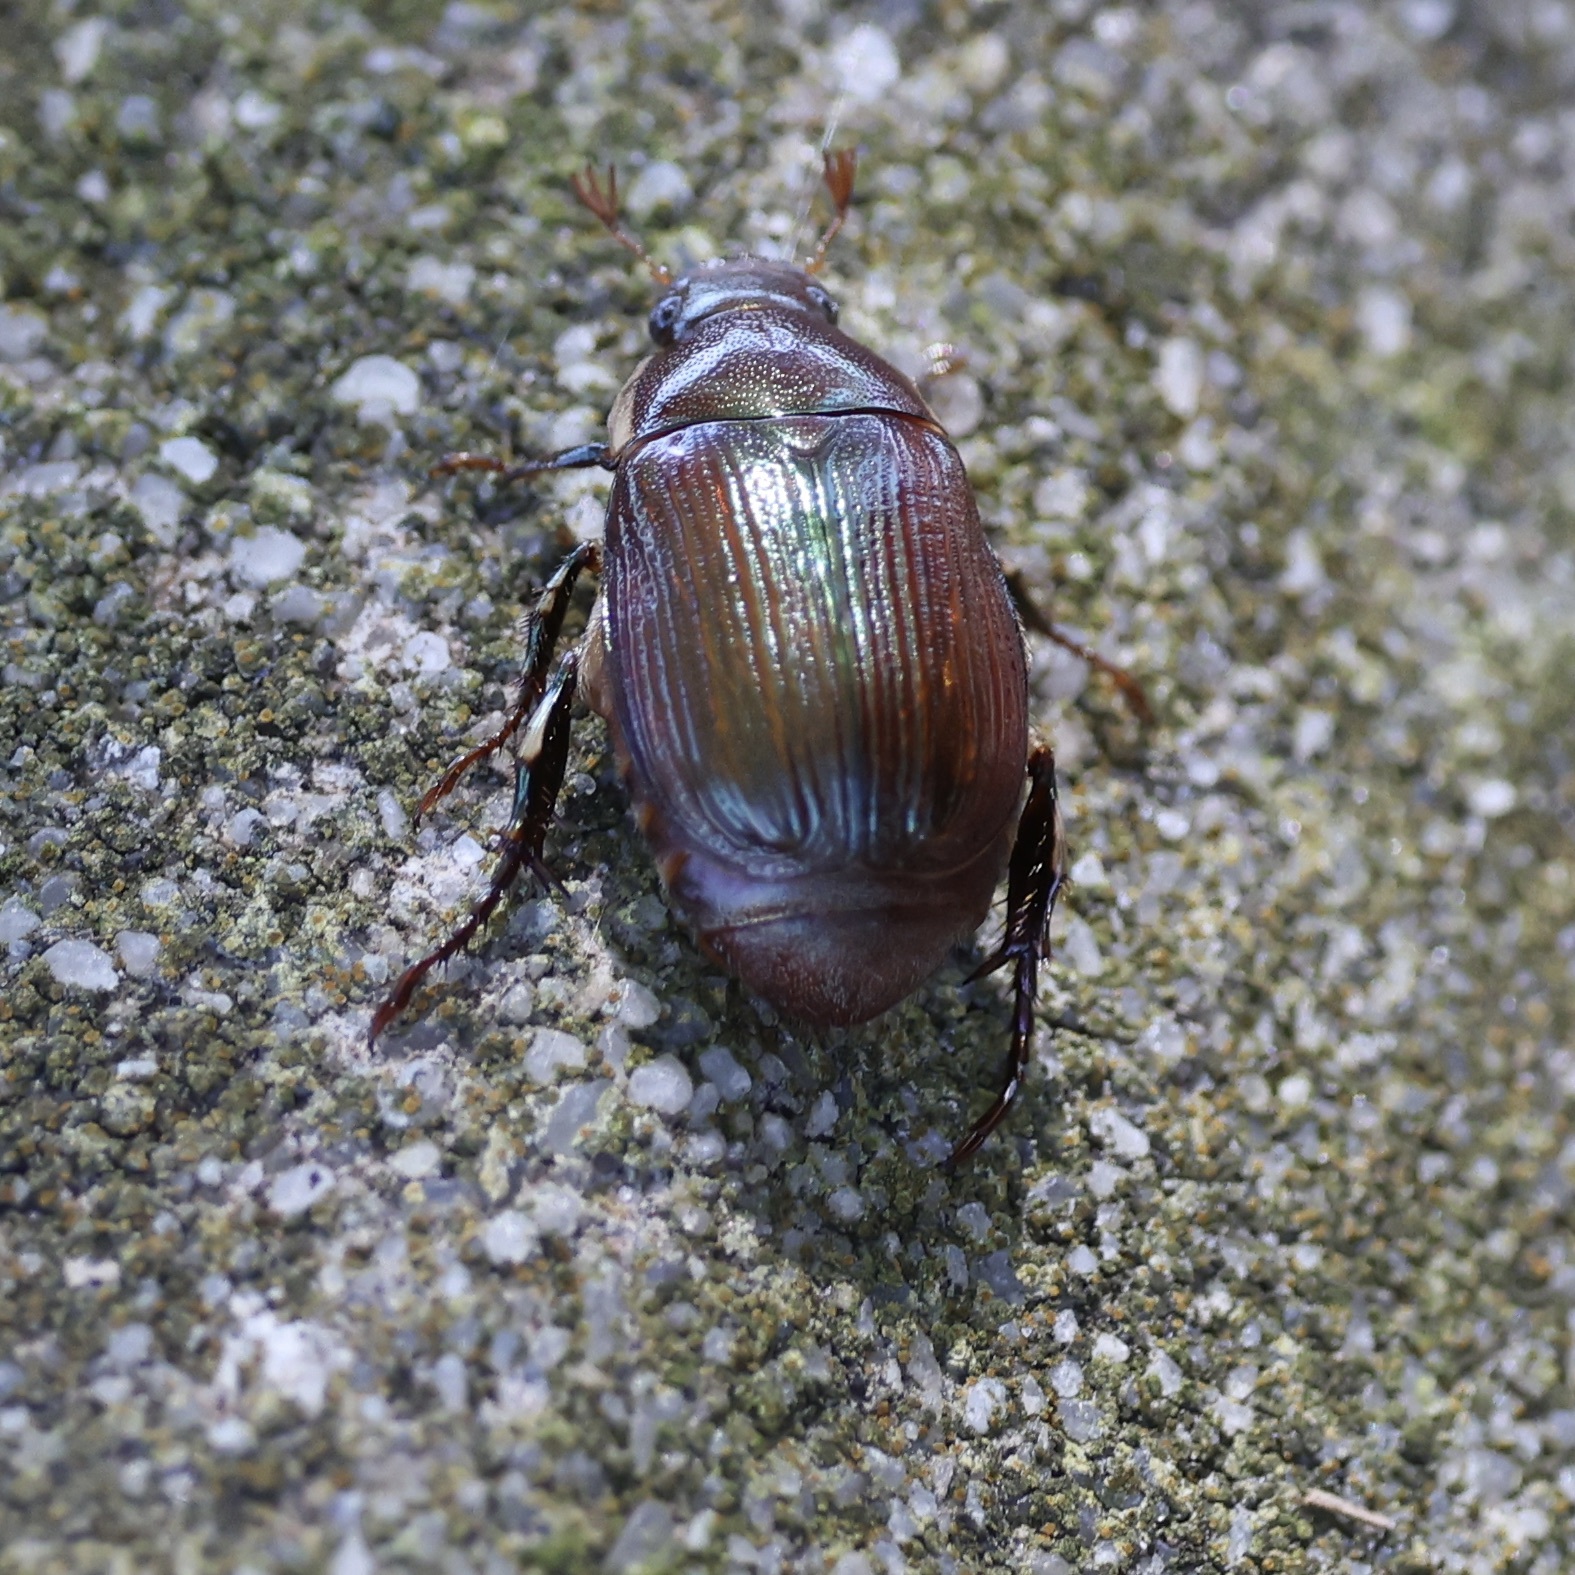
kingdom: Animalia
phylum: Arthropoda
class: Insecta
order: Coleoptera
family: Scarabaeidae
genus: Callistethus
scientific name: Callistethus marginatus
